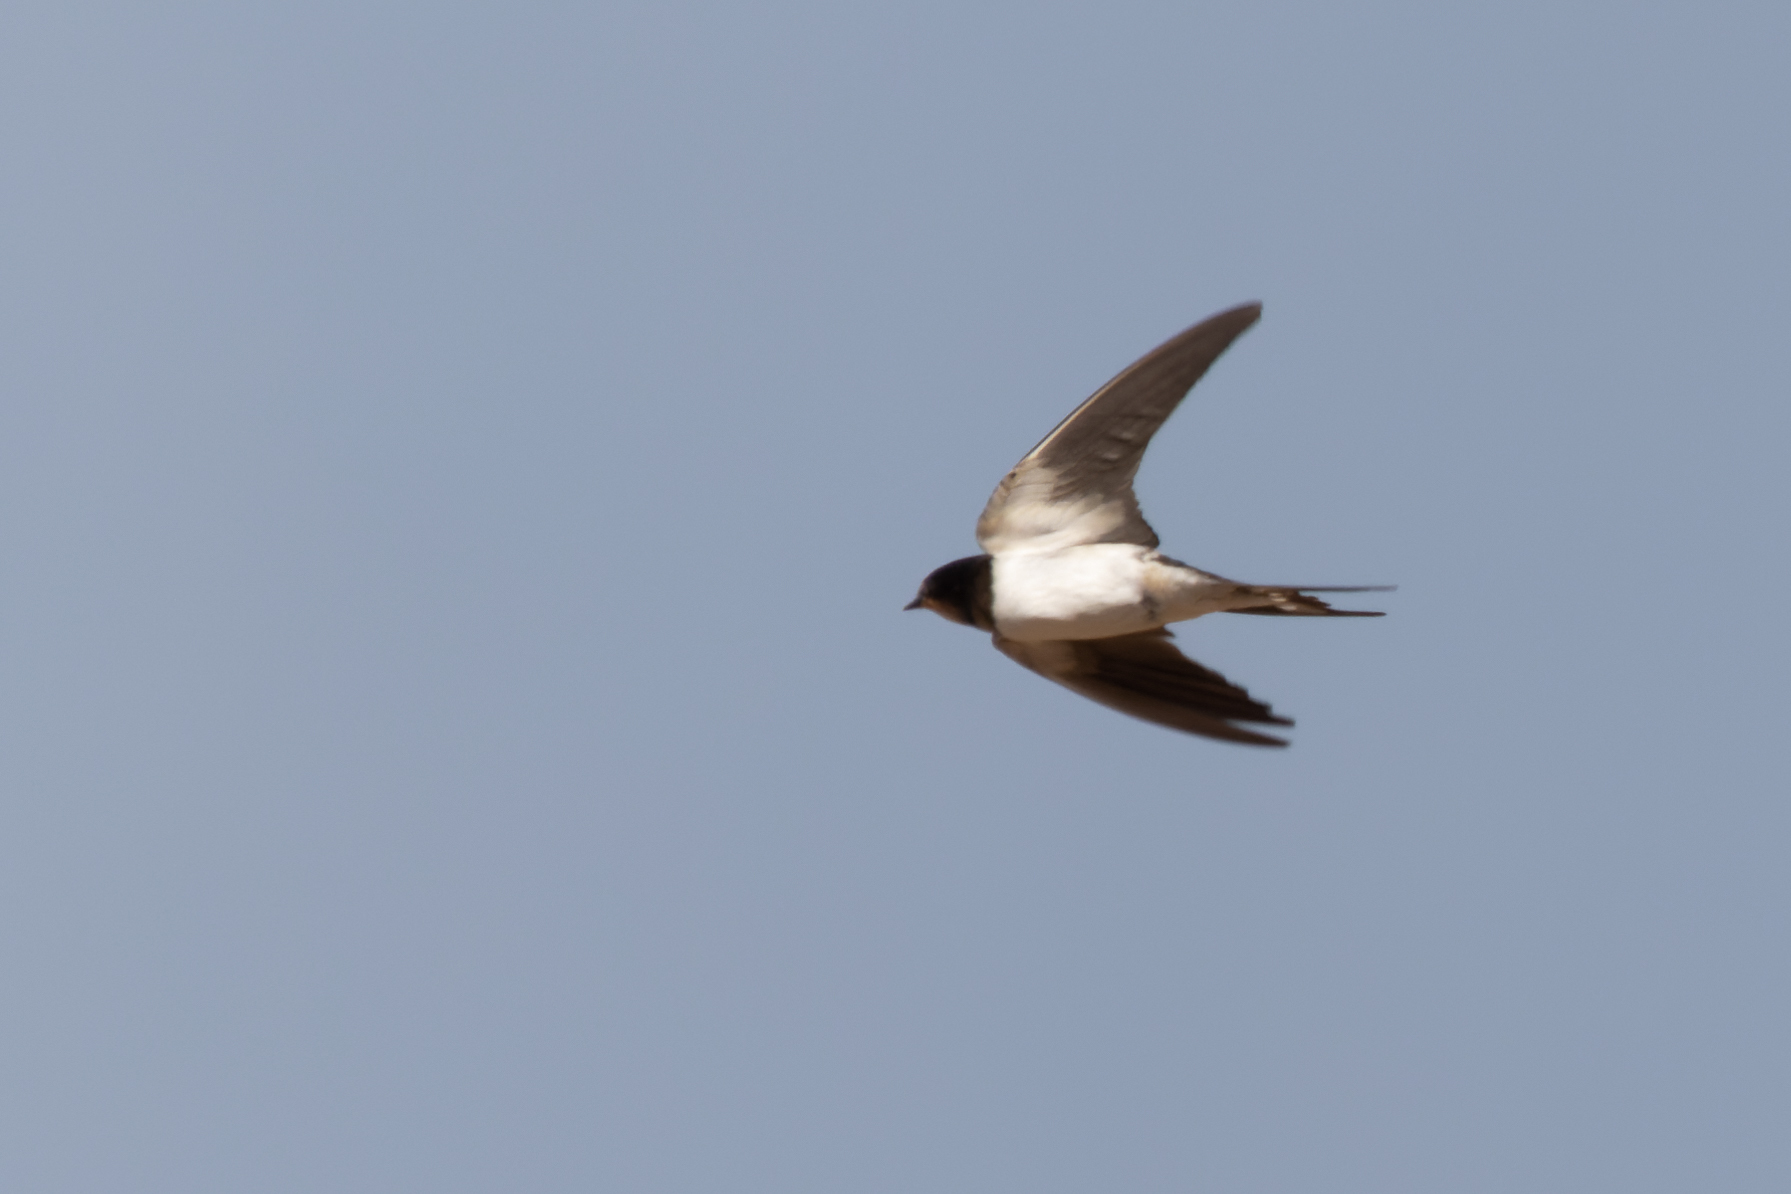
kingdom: Animalia
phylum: Chordata
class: Aves
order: Passeriformes
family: Hirundinidae
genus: Hirundo
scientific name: Hirundo rustica
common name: Barn swallow
